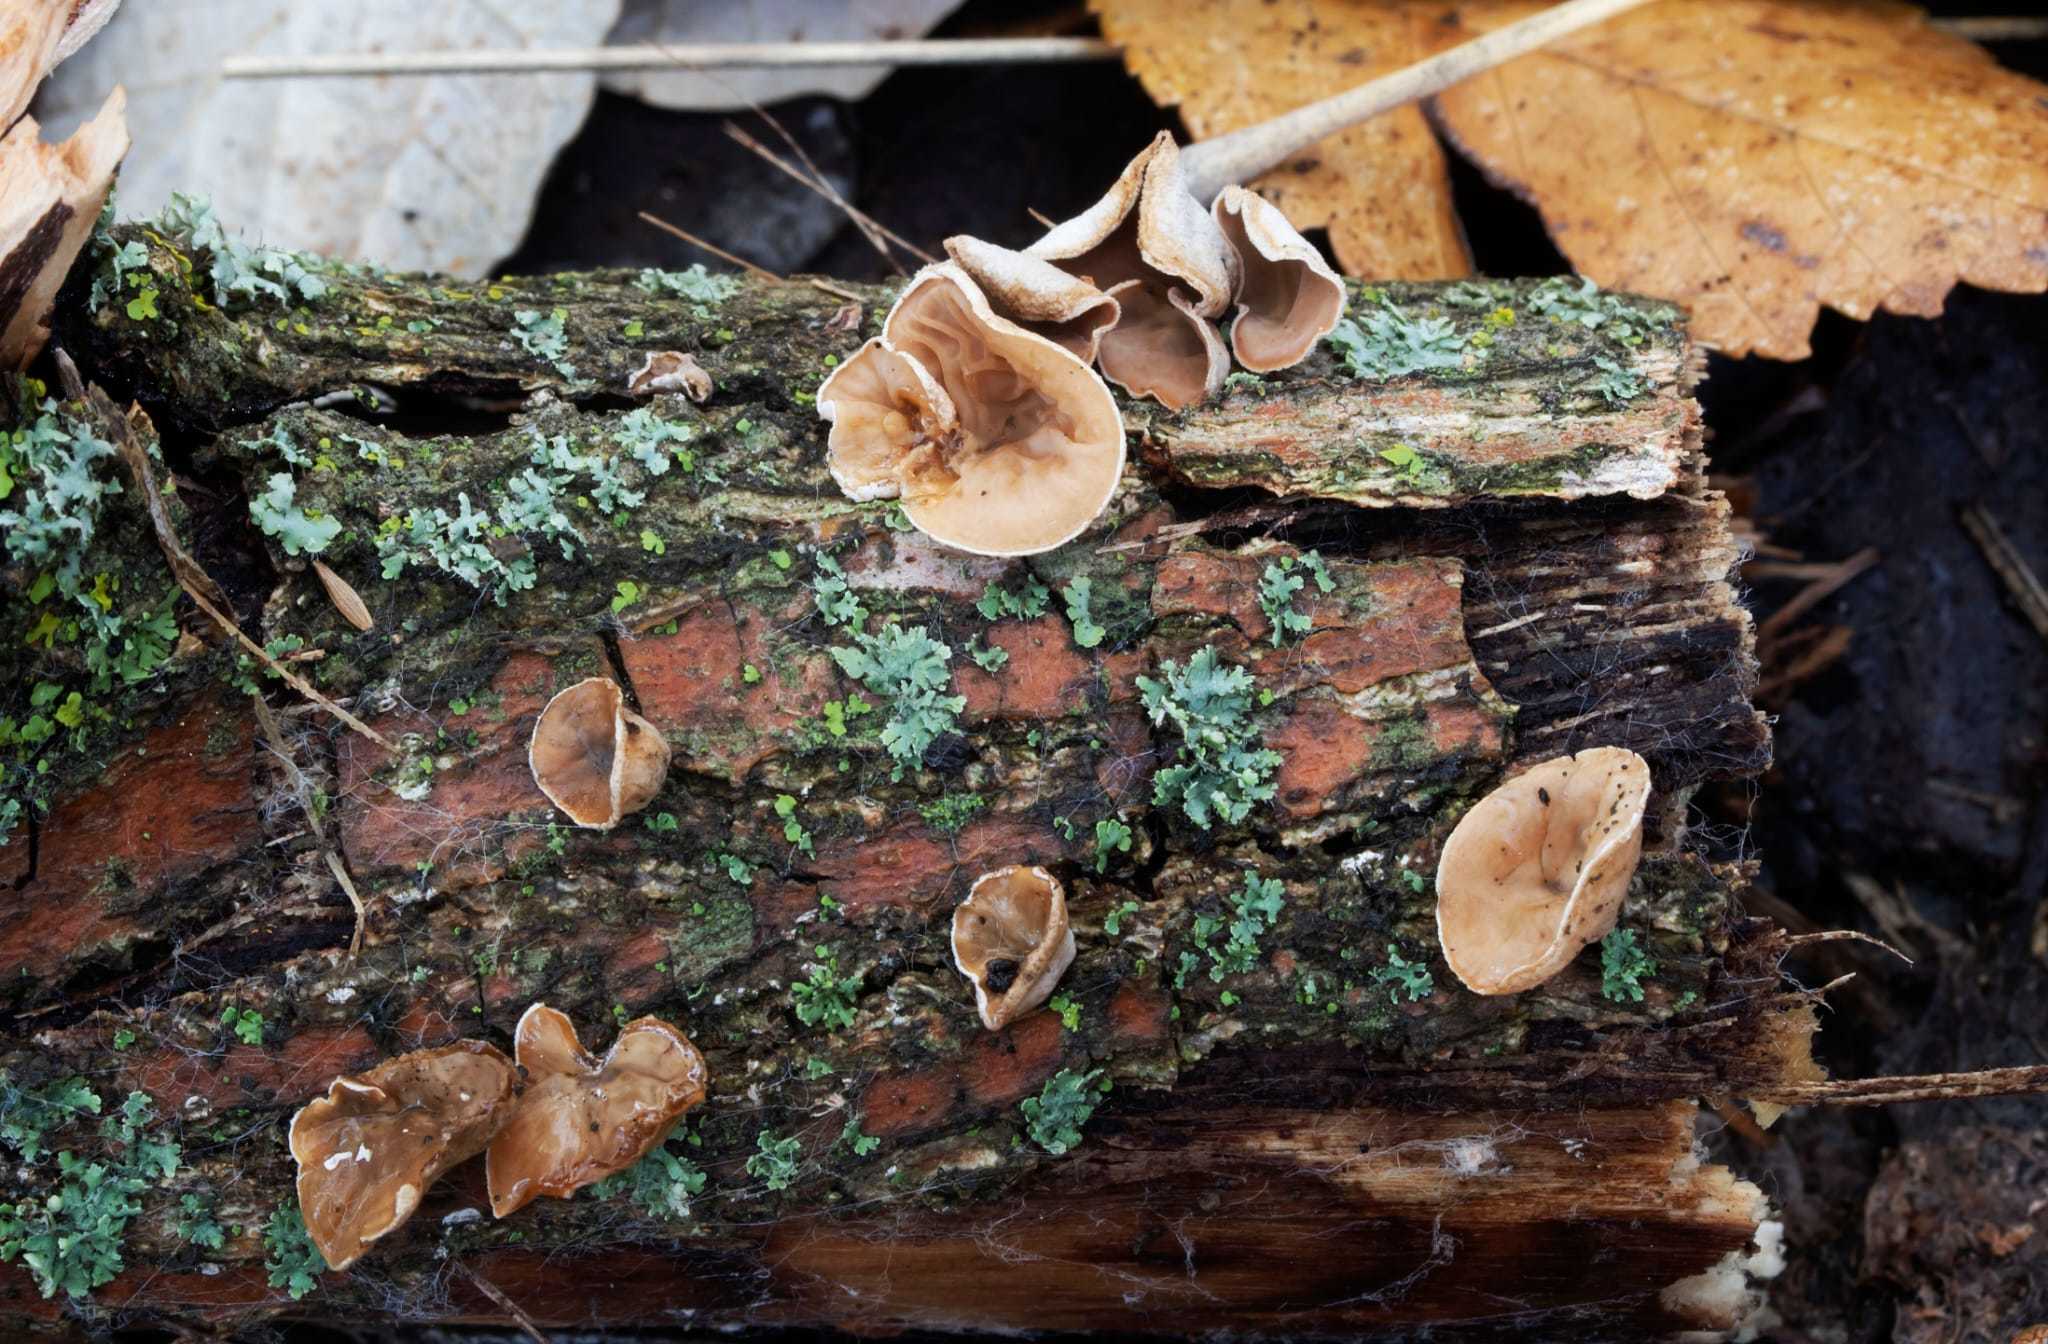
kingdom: Fungi
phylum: Basidiomycota
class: Agaricomycetes
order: Agaricales
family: Schizophyllaceae
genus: Schizophyllum
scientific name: Schizophyllum amplum
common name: Poplar bells
